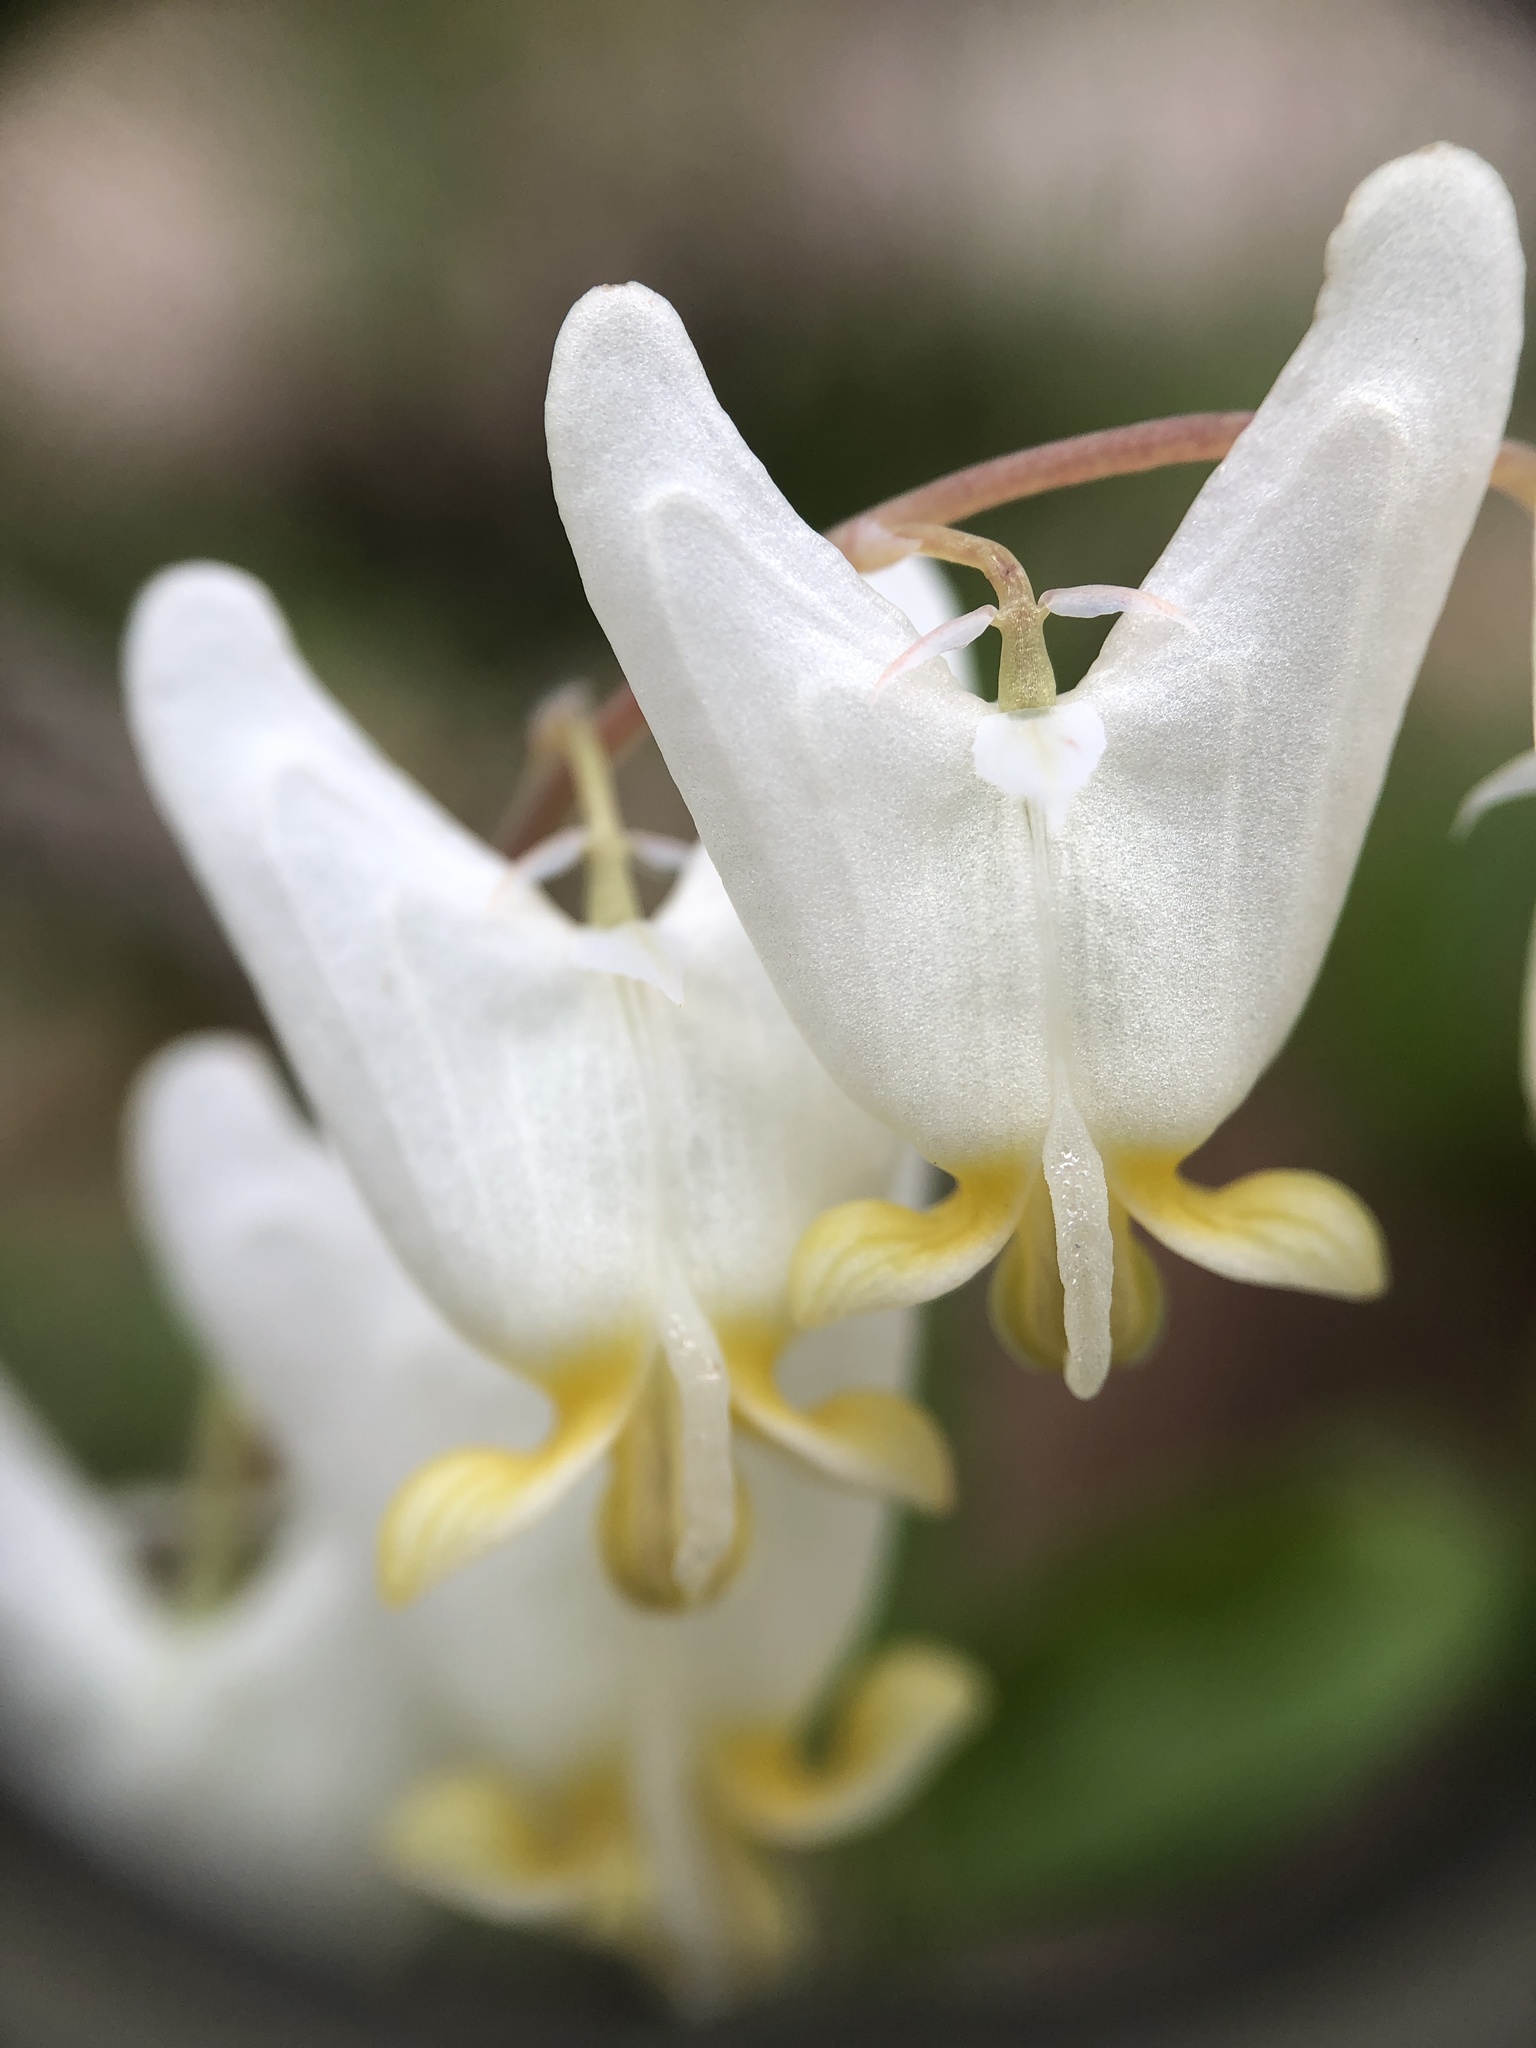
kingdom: Plantae
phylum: Tracheophyta
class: Magnoliopsida
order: Ranunculales
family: Papaveraceae
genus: Dicentra
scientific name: Dicentra cucullaria
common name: Dutchman's breeches
